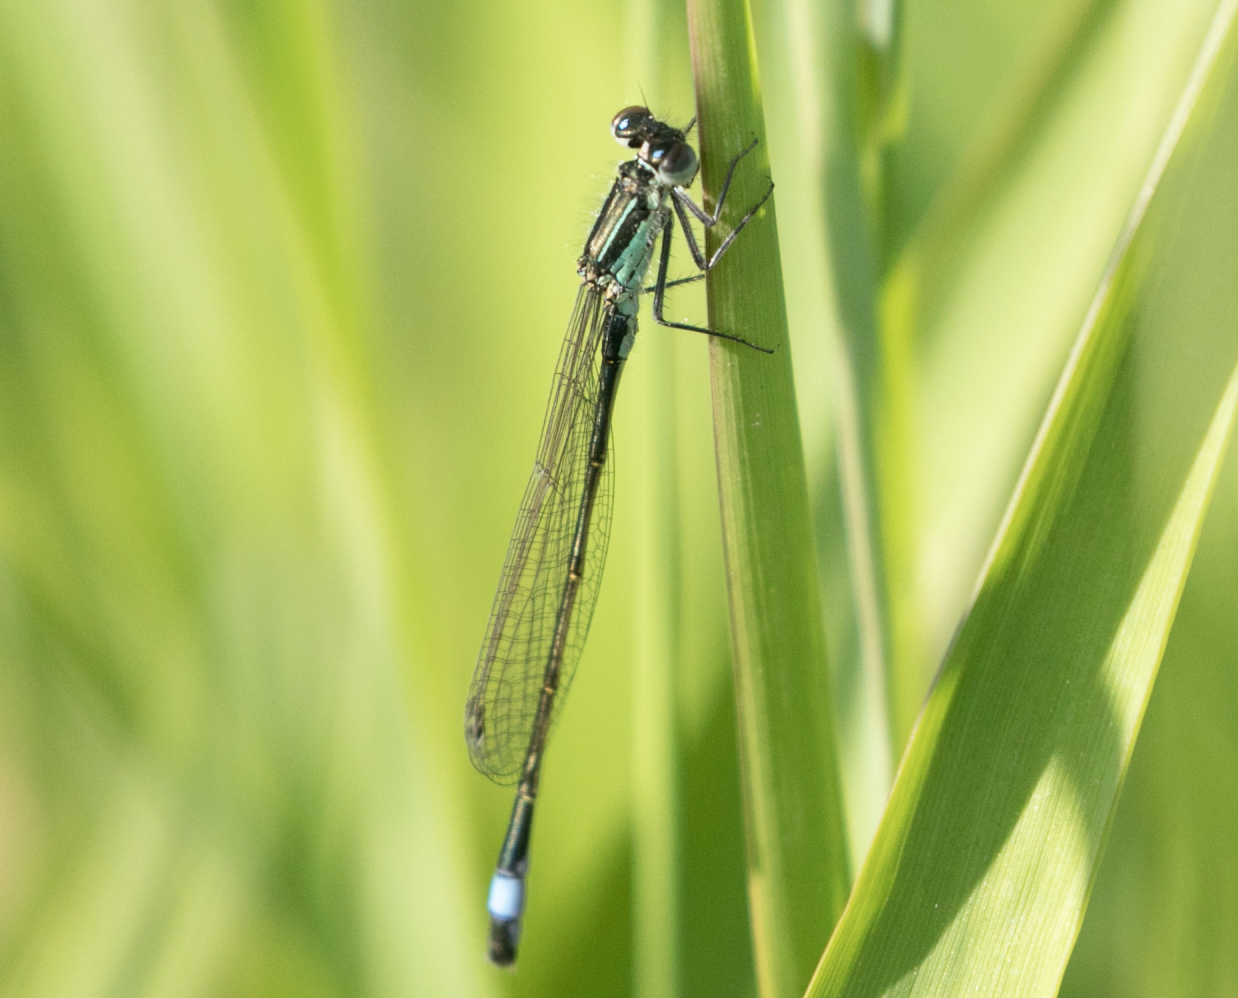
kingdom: Animalia
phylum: Arthropoda
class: Insecta
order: Odonata
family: Coenagrionidae
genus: Ischnura
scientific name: Ischnura elegans
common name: Blue-tailed damselfly
